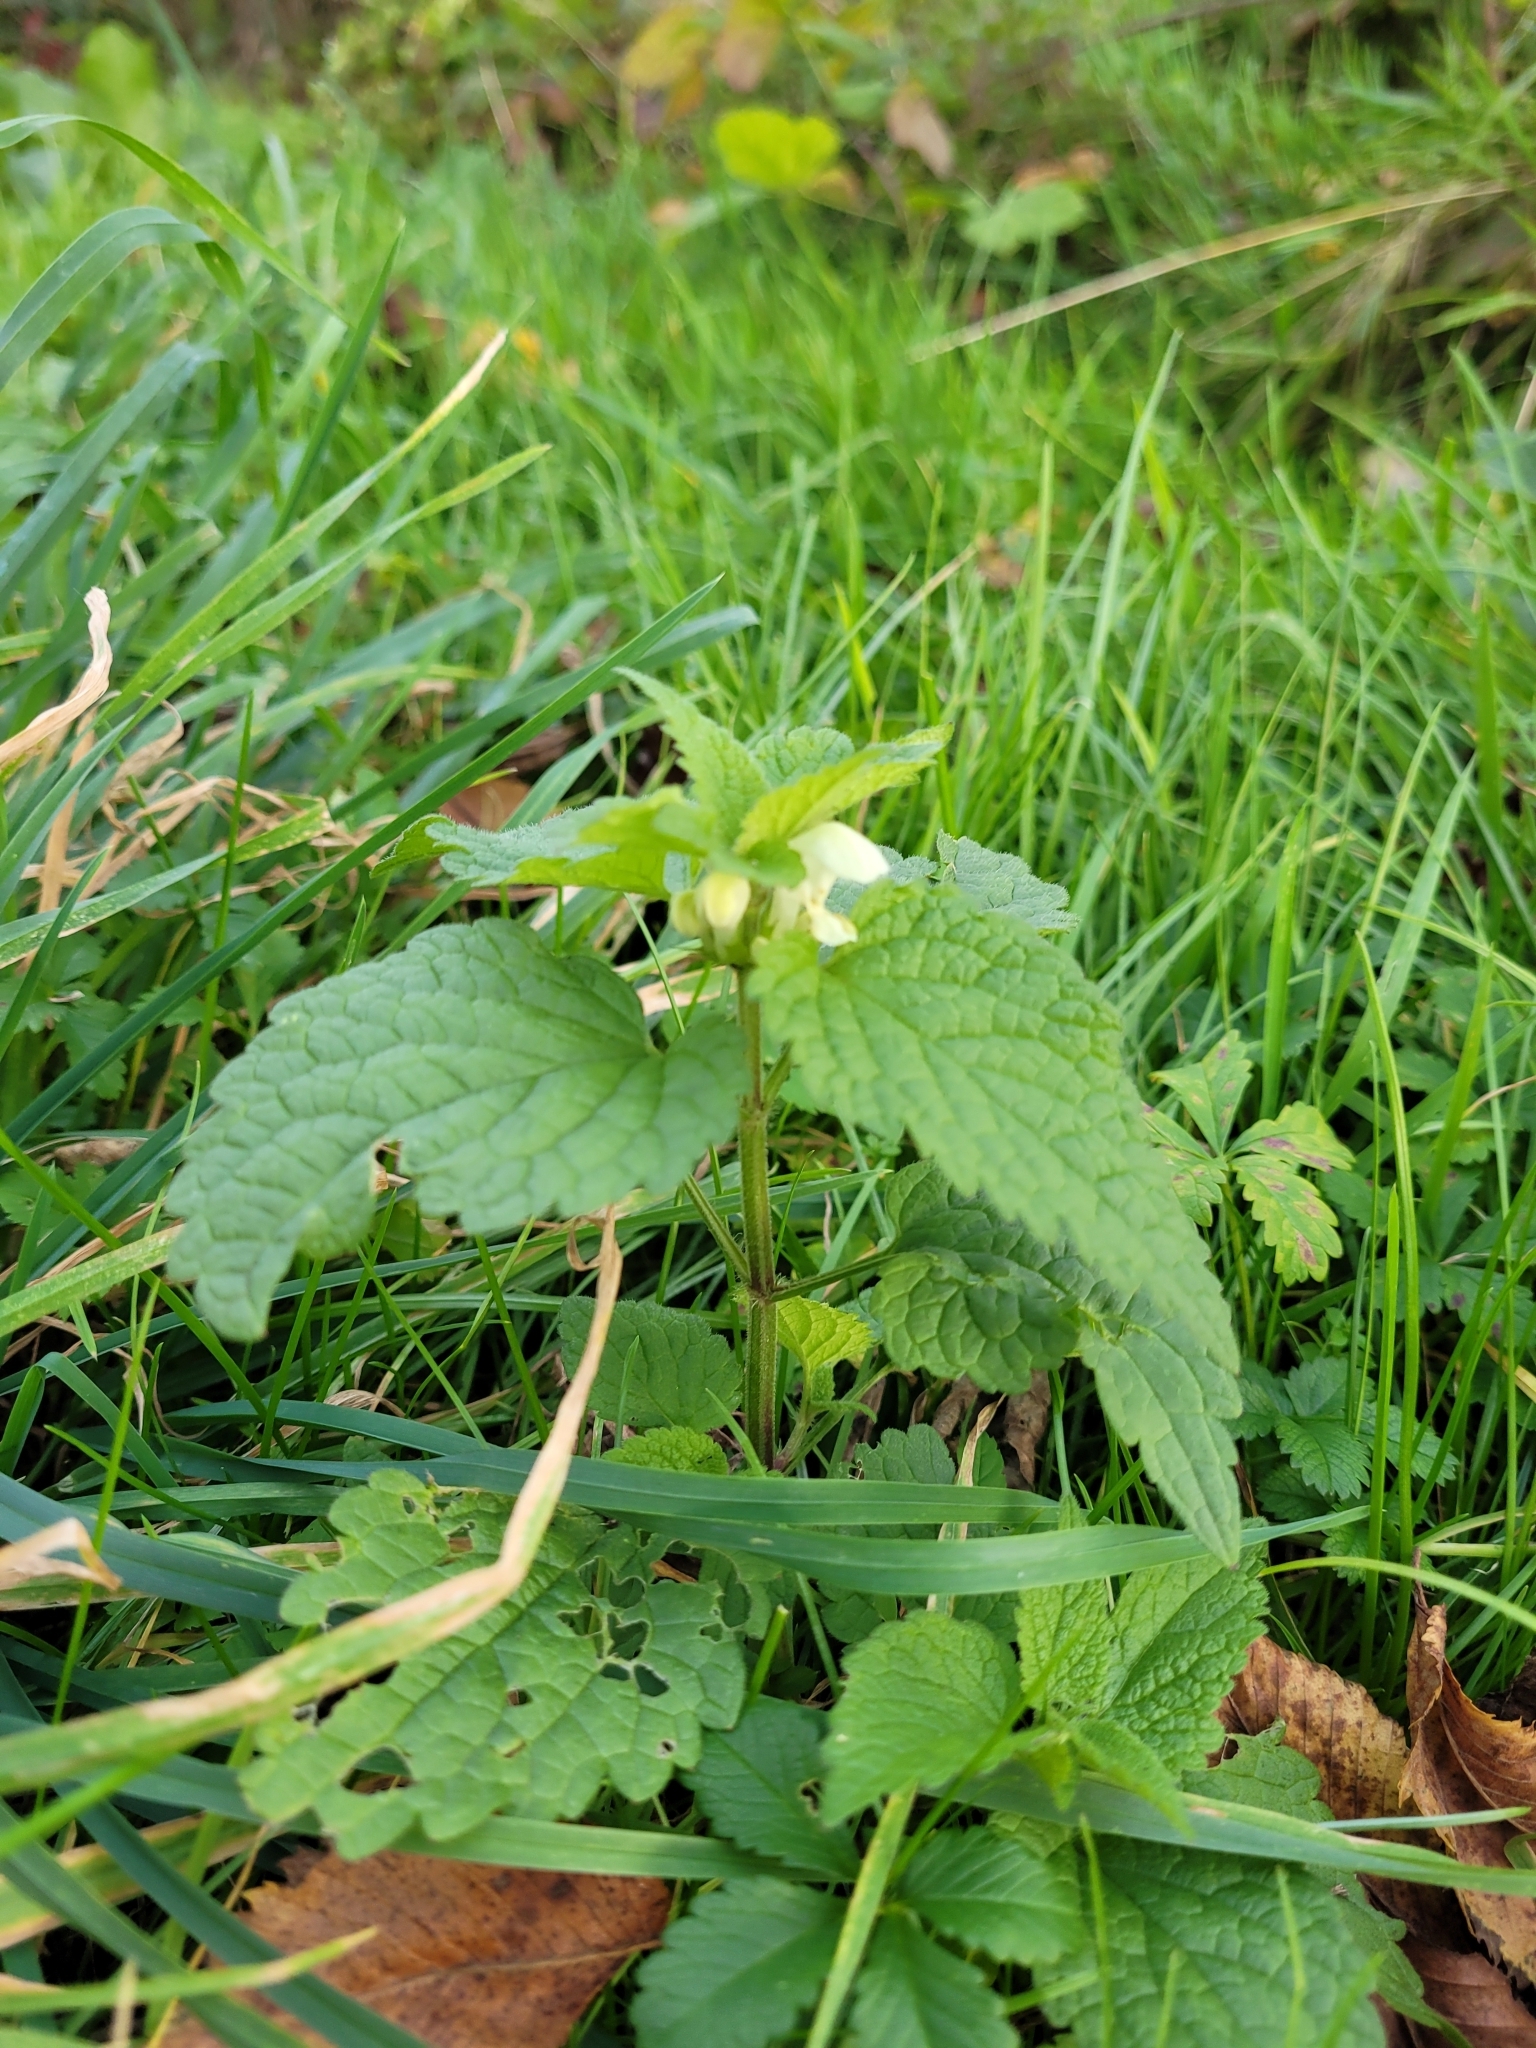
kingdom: Plantae
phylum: Tracheophyta
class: Magnoliopsida
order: Lamiales
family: Lamiaceae
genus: Lamium
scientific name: Lamium album
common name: White dead-nettle
